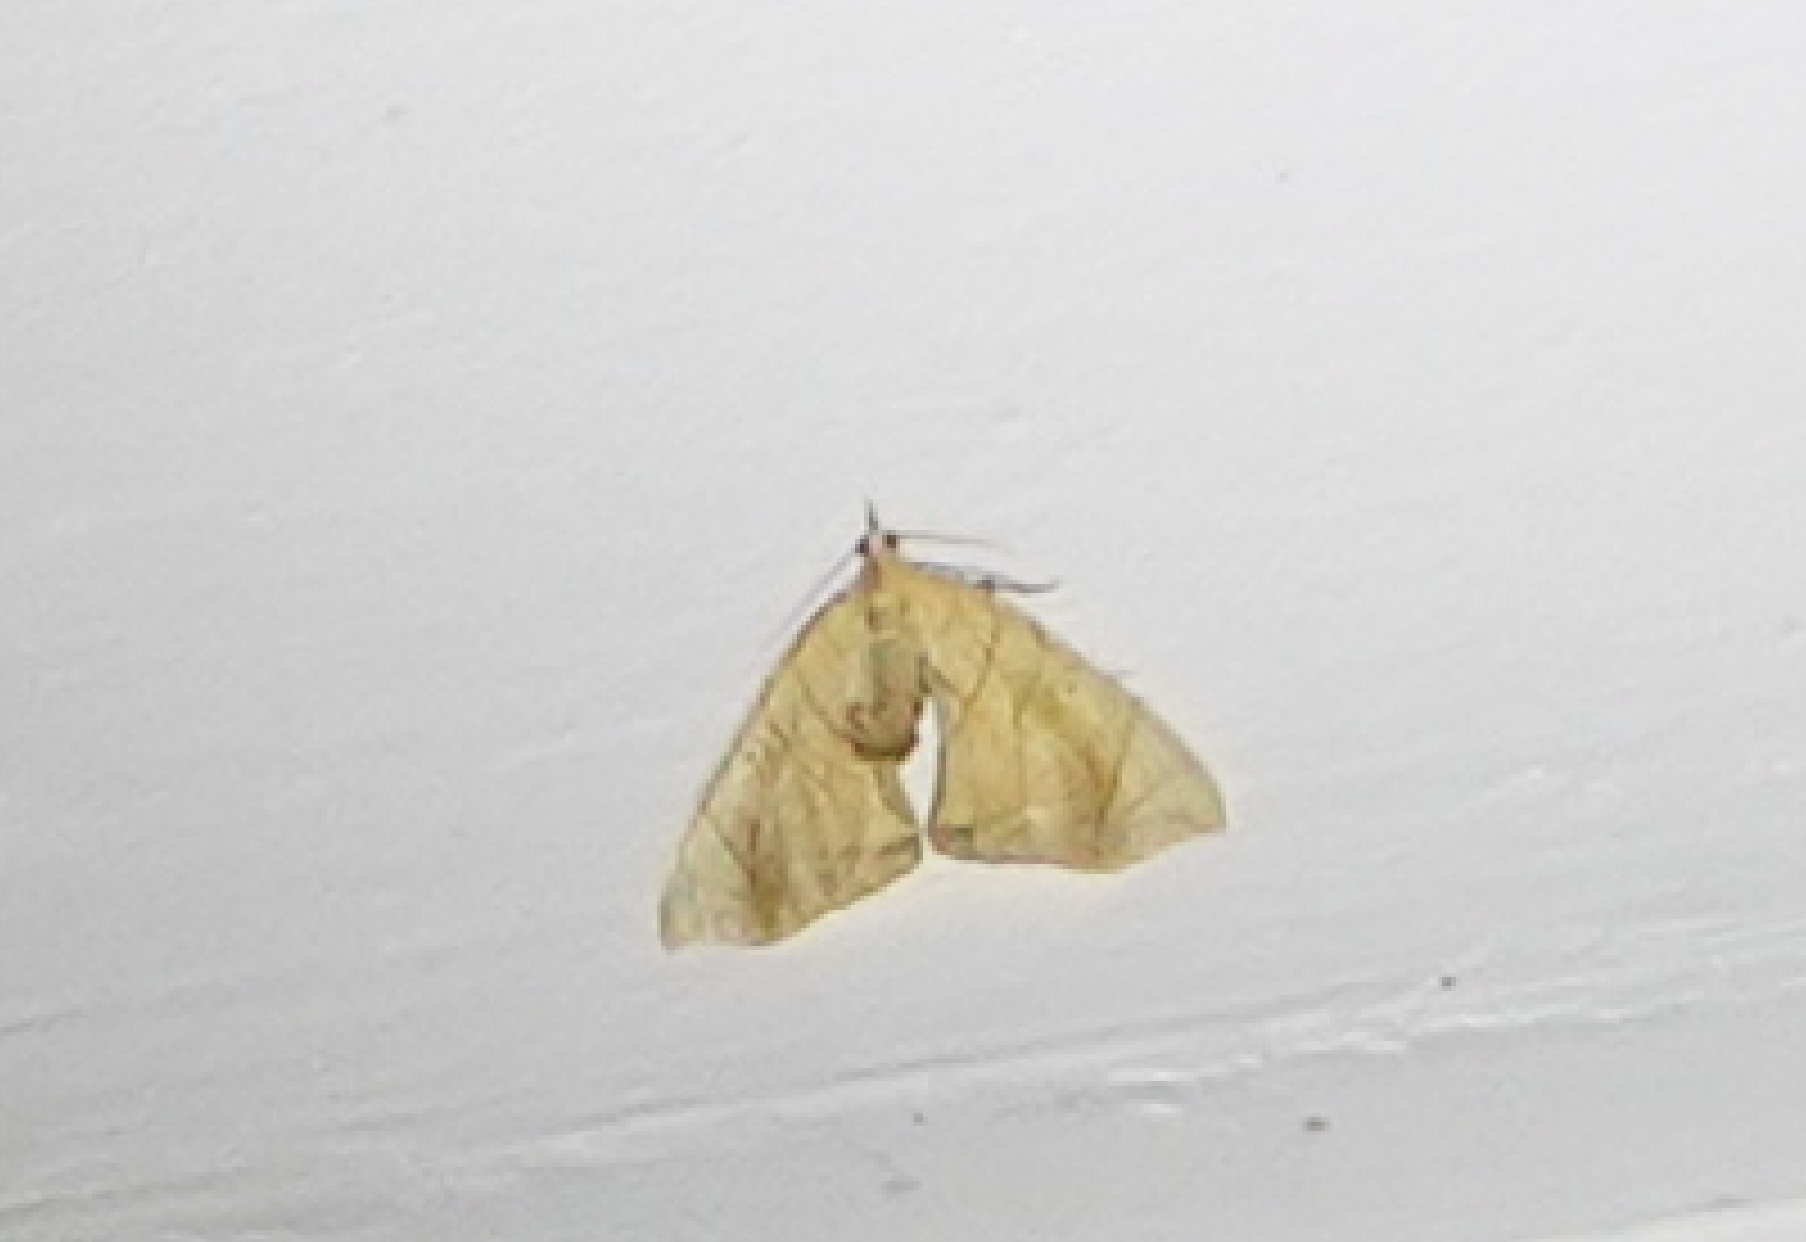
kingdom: Animalia
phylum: Arthropoda
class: Insecta
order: Lepidoptera
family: Geometridae
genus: Eulithis
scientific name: Eulithis
